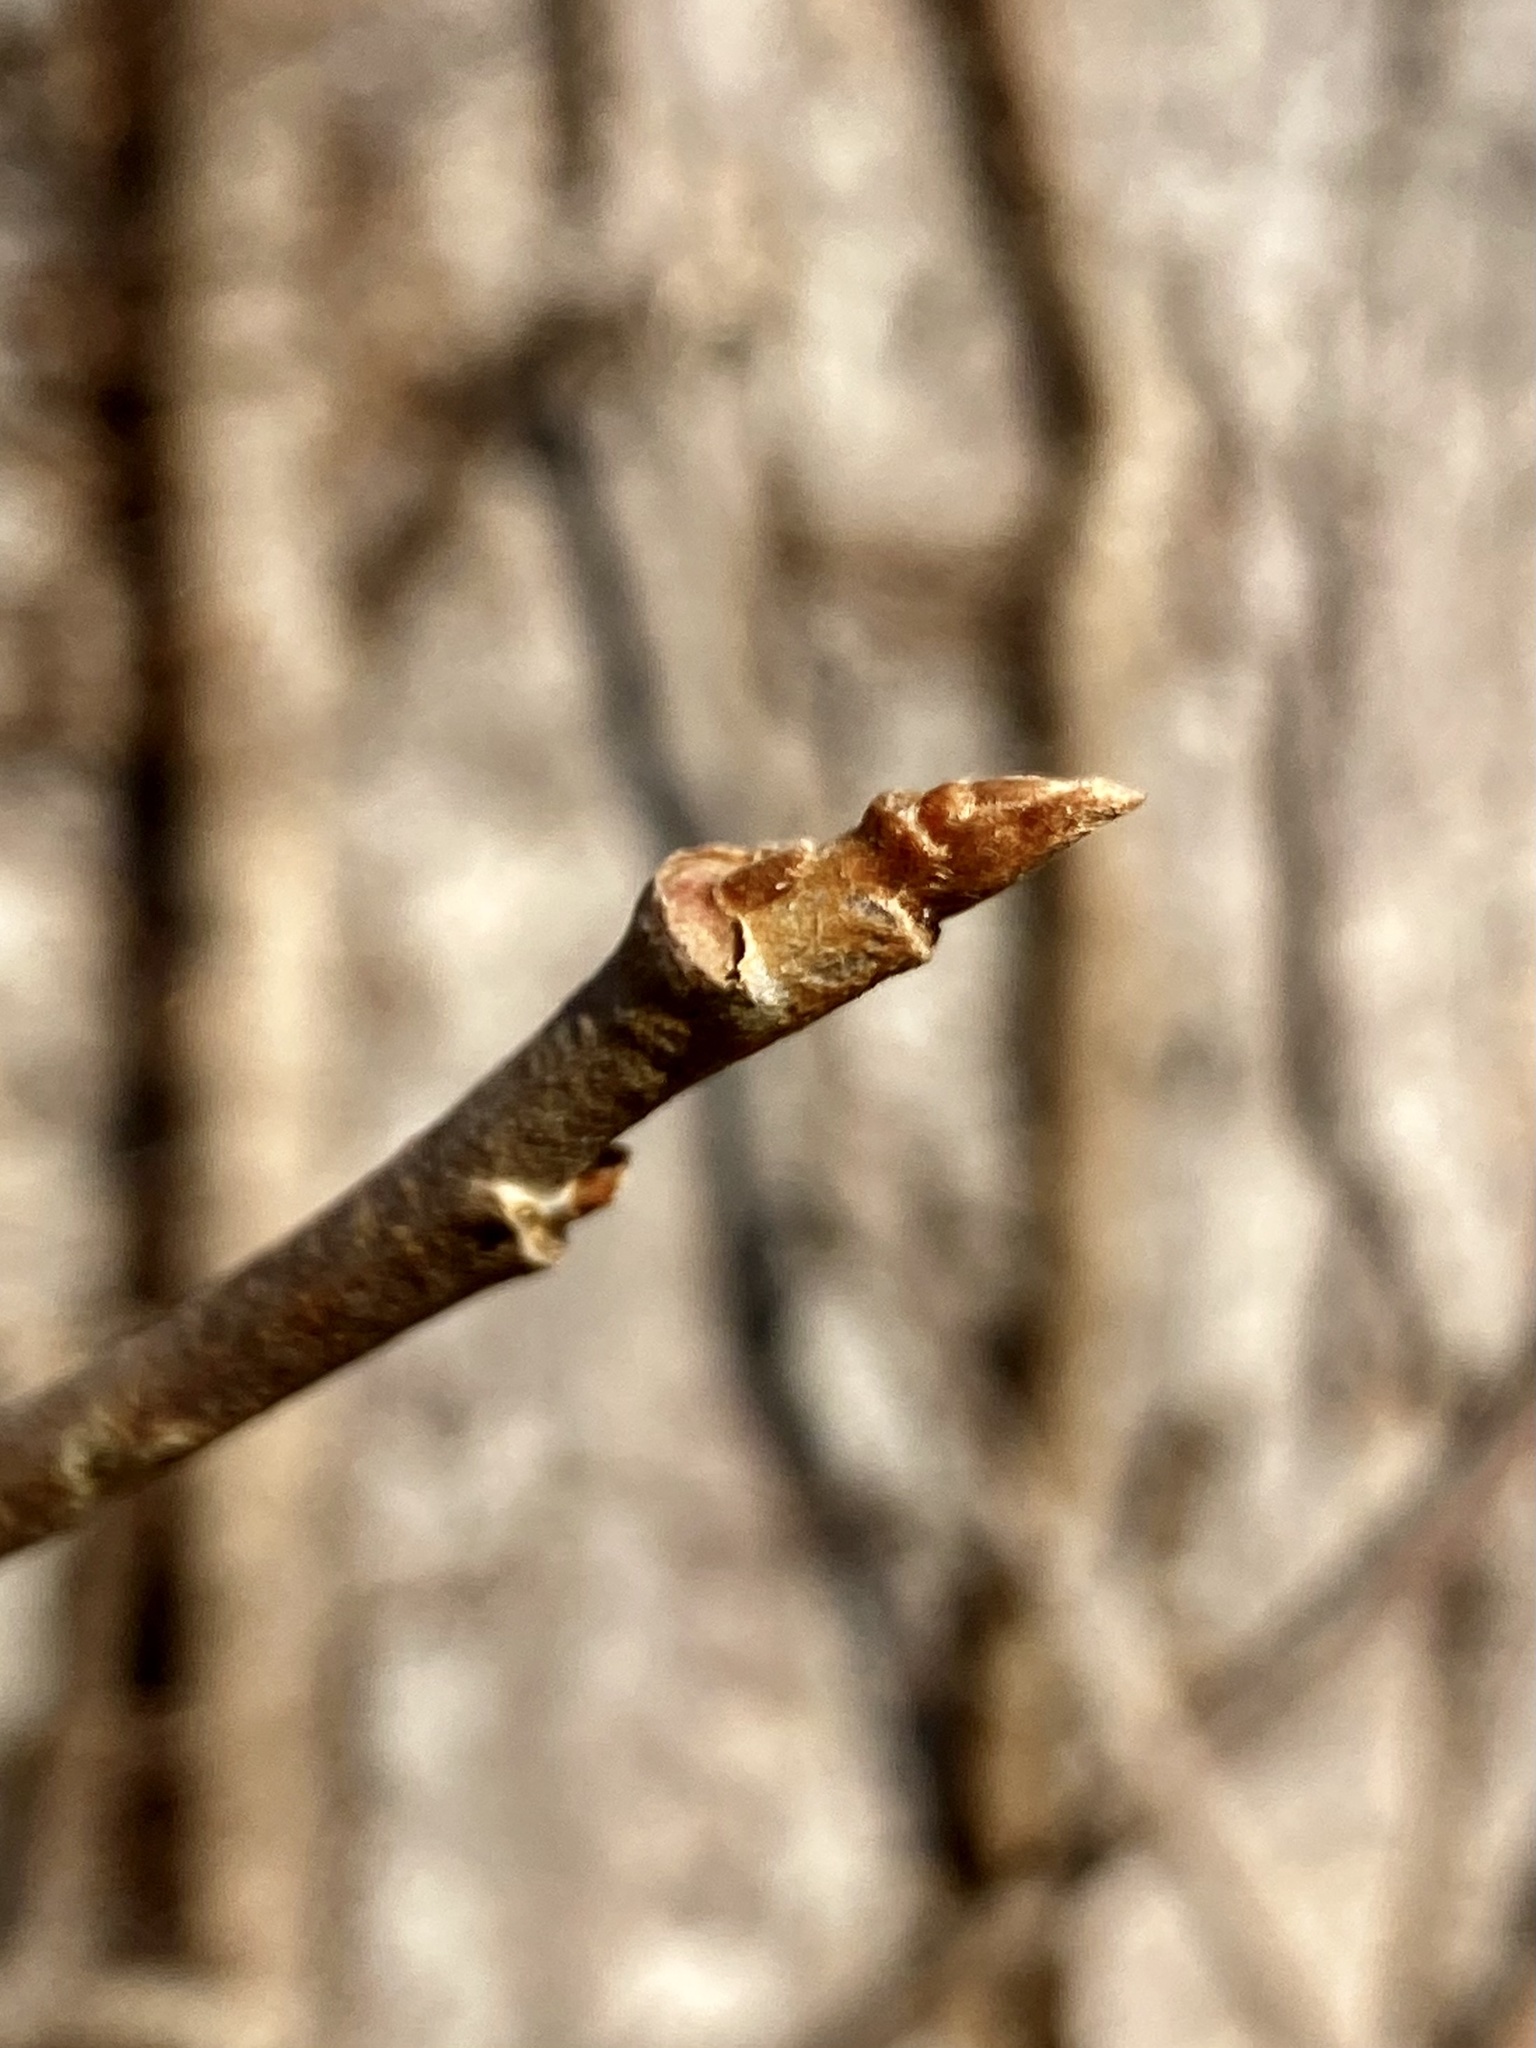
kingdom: Plantae
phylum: Tracheophyta
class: Magnoliopsida
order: Sapindales
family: Anacardiaceae
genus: Toxicodendron
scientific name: Toxicodendron radicans
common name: Poison ivy
